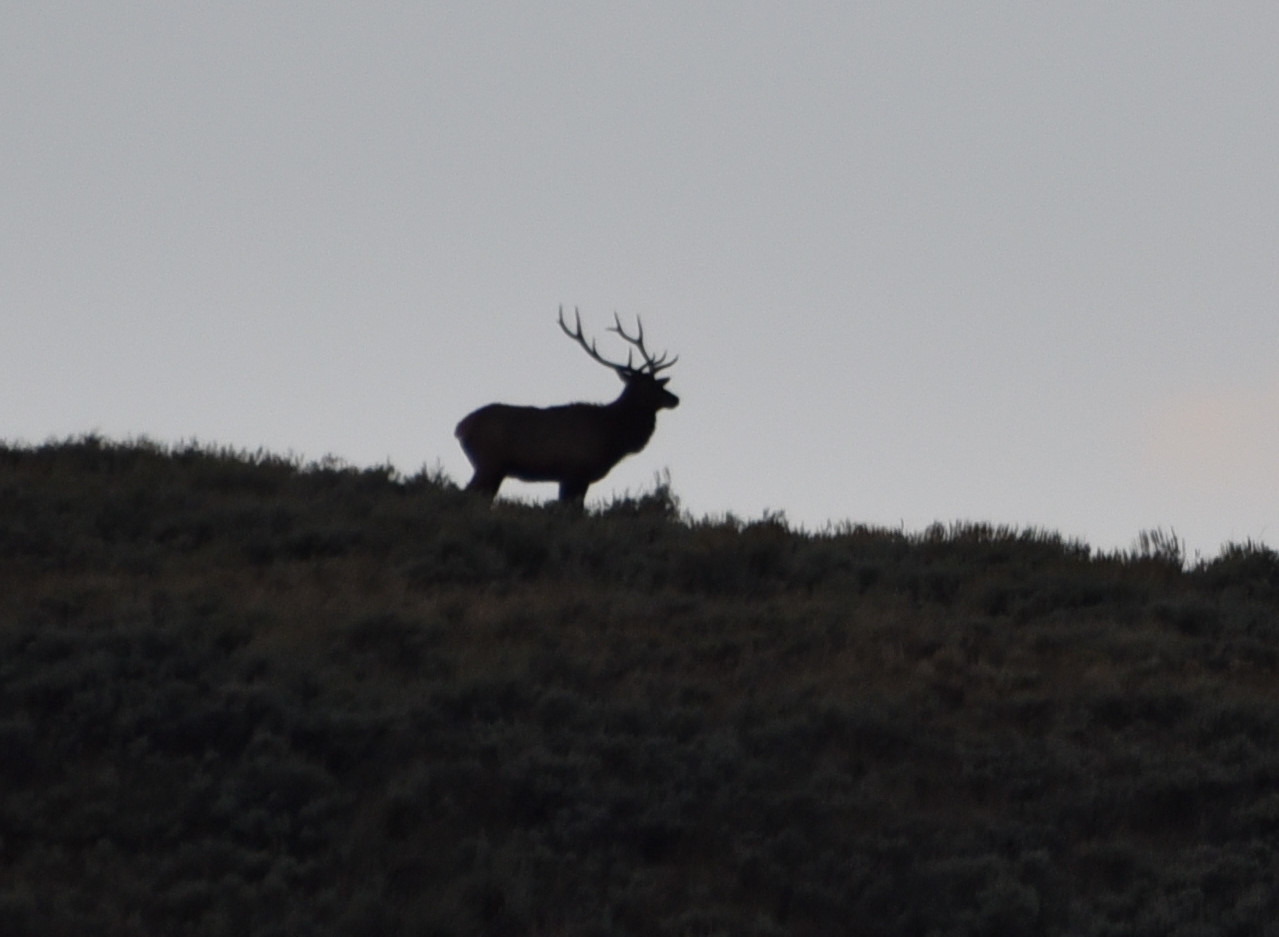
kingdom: Animalia
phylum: Chordata
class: Mammalia
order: Artiodactyla
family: Cervidae
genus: Cervus
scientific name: Cervus elaphus
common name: Red deer
